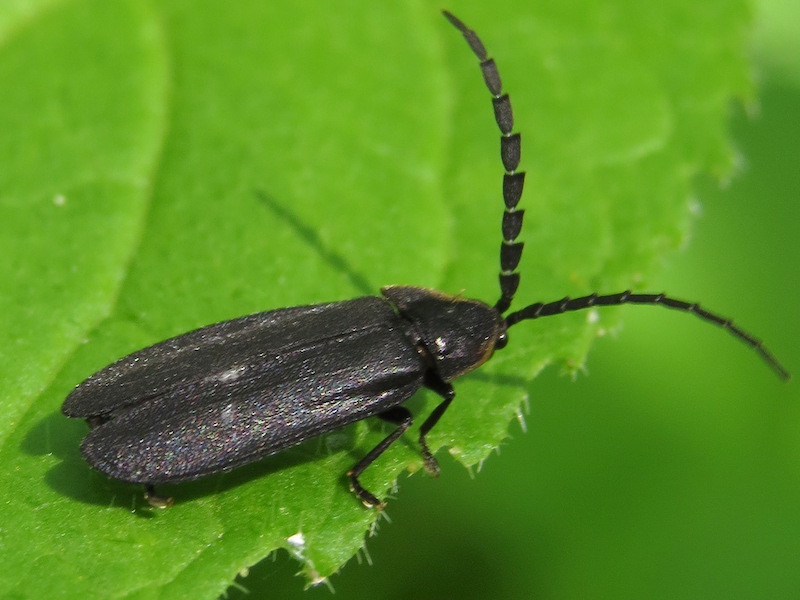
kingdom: Animalia
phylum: Arthropoda
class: Insecta
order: Coleoptera
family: Lampyridae
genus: Lucidota
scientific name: Lucidota atra
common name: Black firefly
